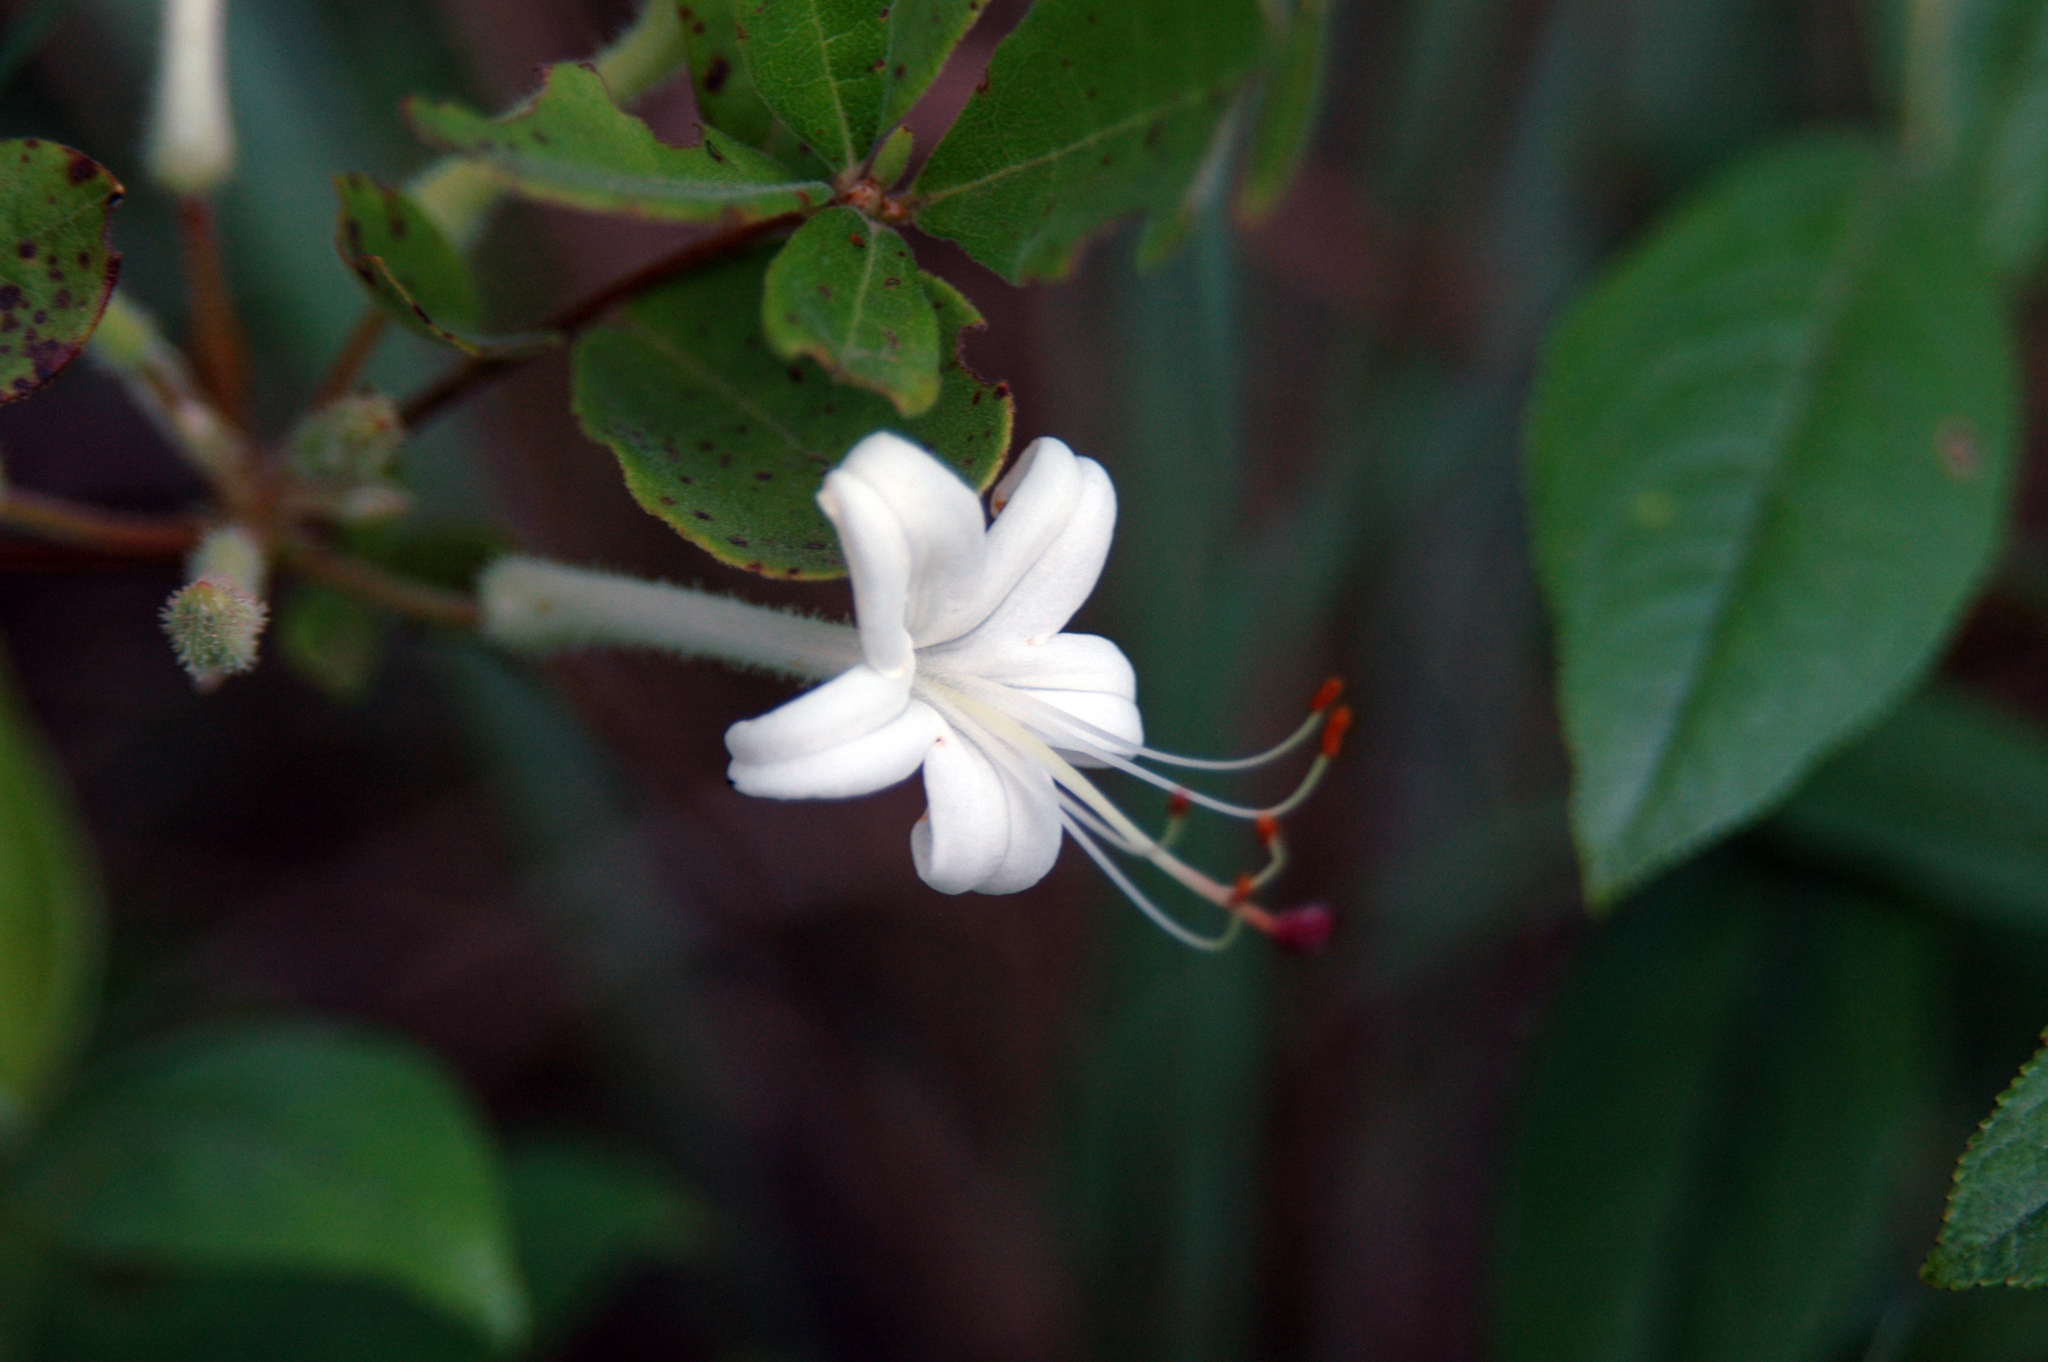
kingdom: Plantae
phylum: Tracheophyta
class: Magnoliopsida
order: Ericales
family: Ericaceae
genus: Rhododendron
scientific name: Rhododendron serrulatum
